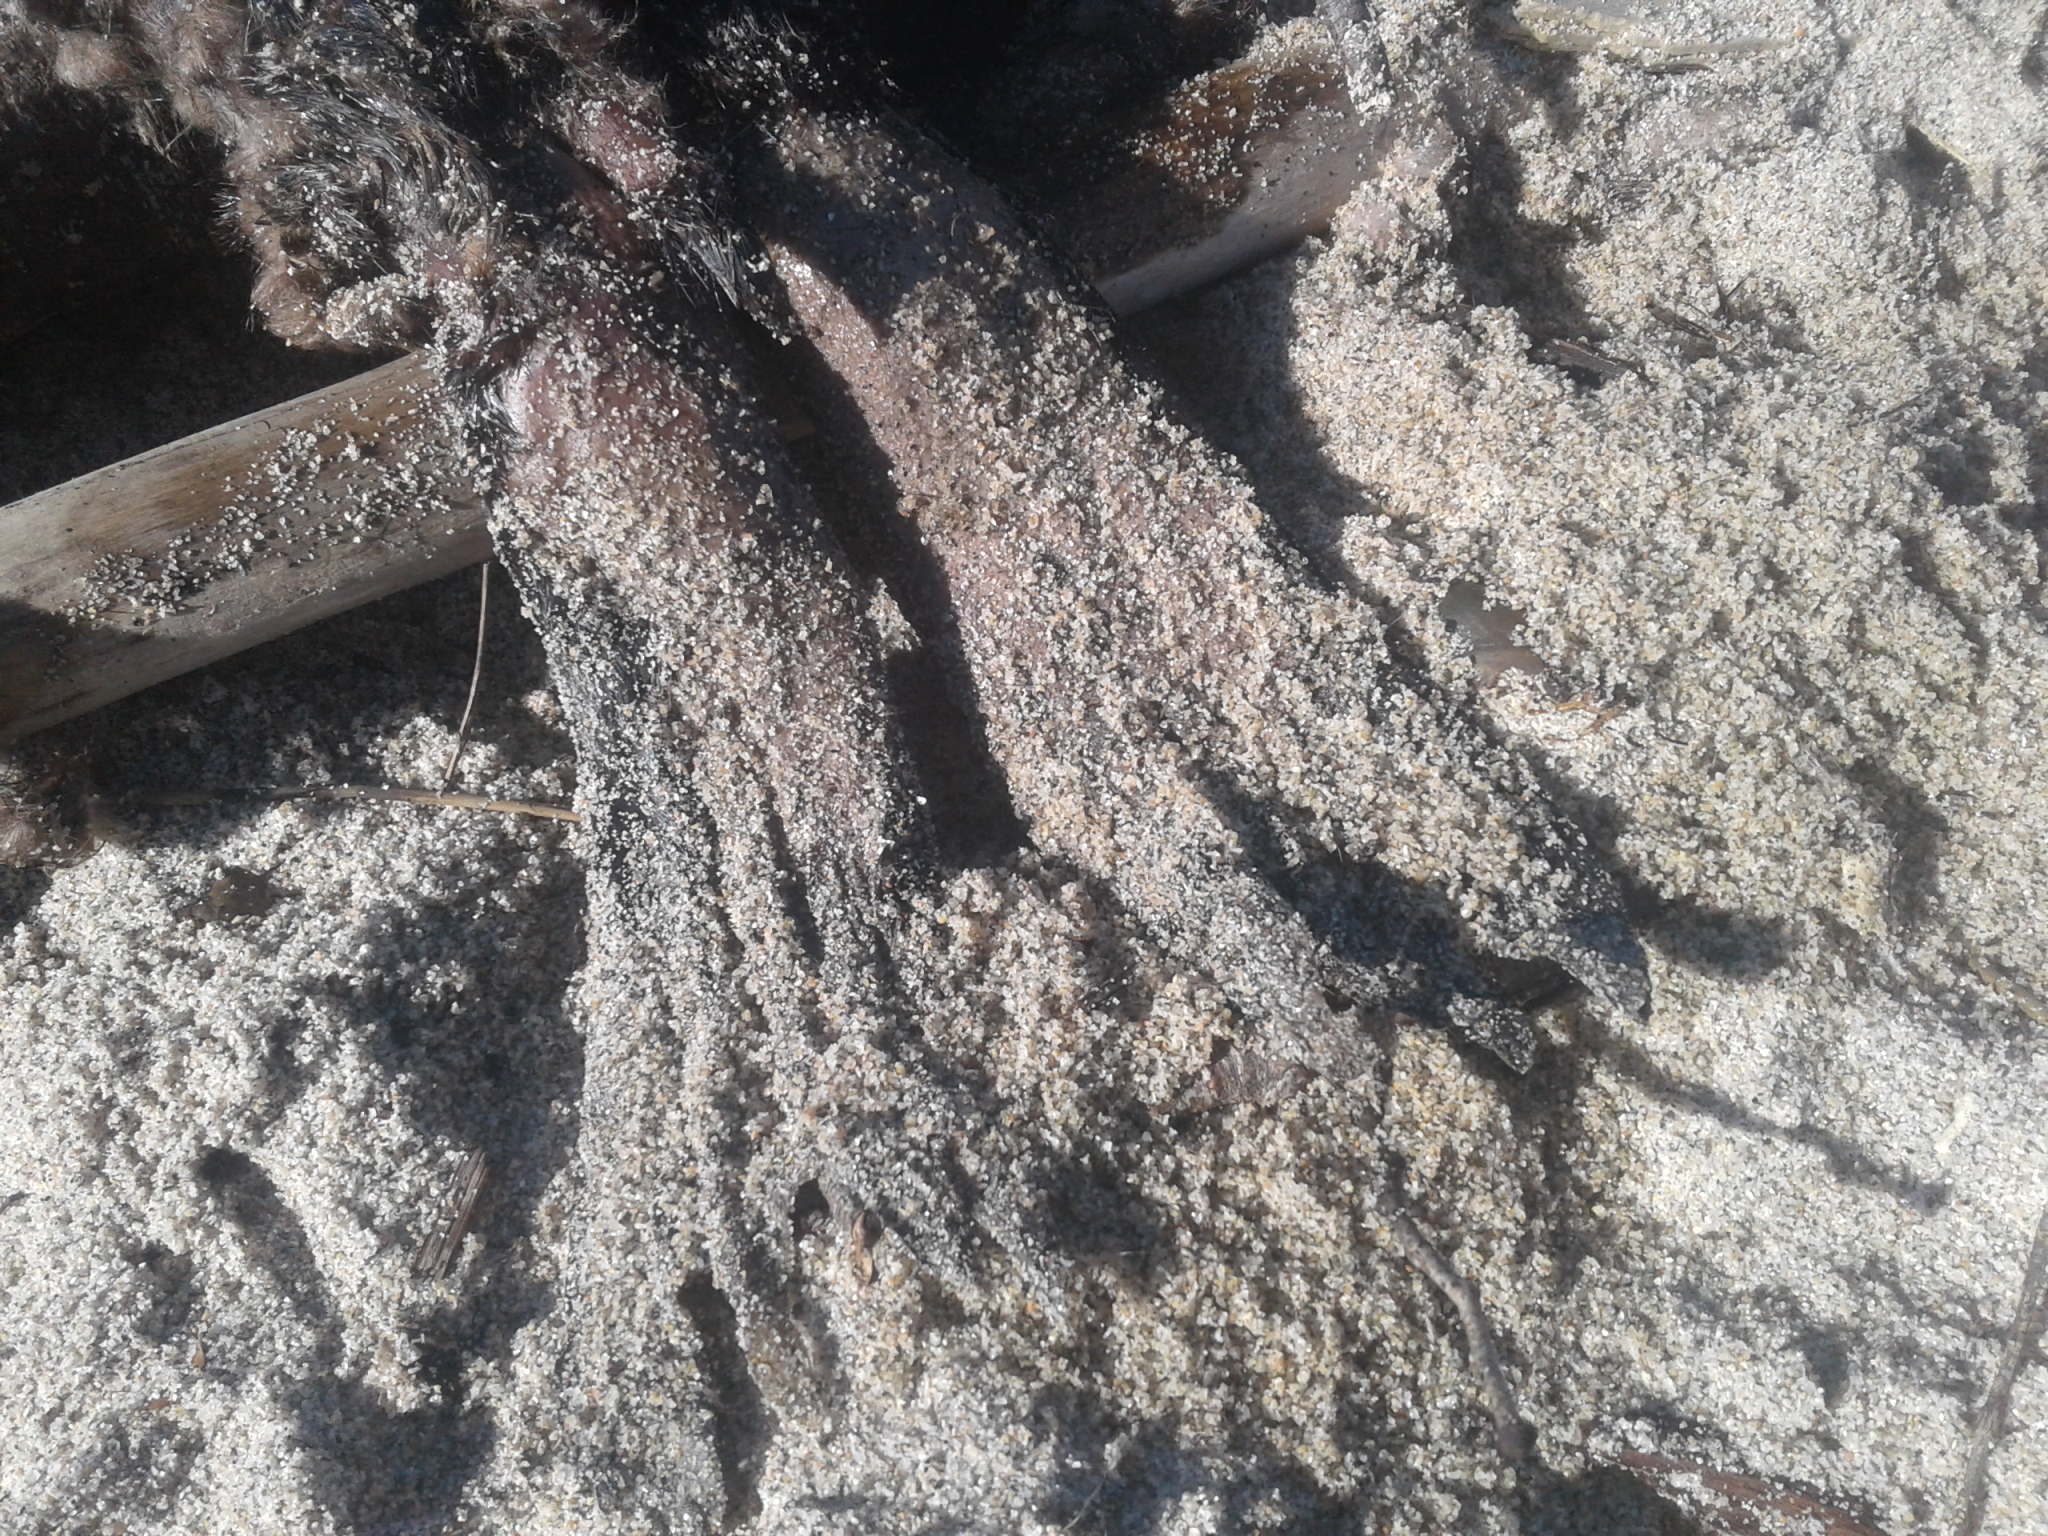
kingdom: Animalia
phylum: Chordata
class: Mammalia
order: Carnivora
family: Otariidae
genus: Arctocephalus
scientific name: Arctocephalus forsteri
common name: New zealand fur seal
